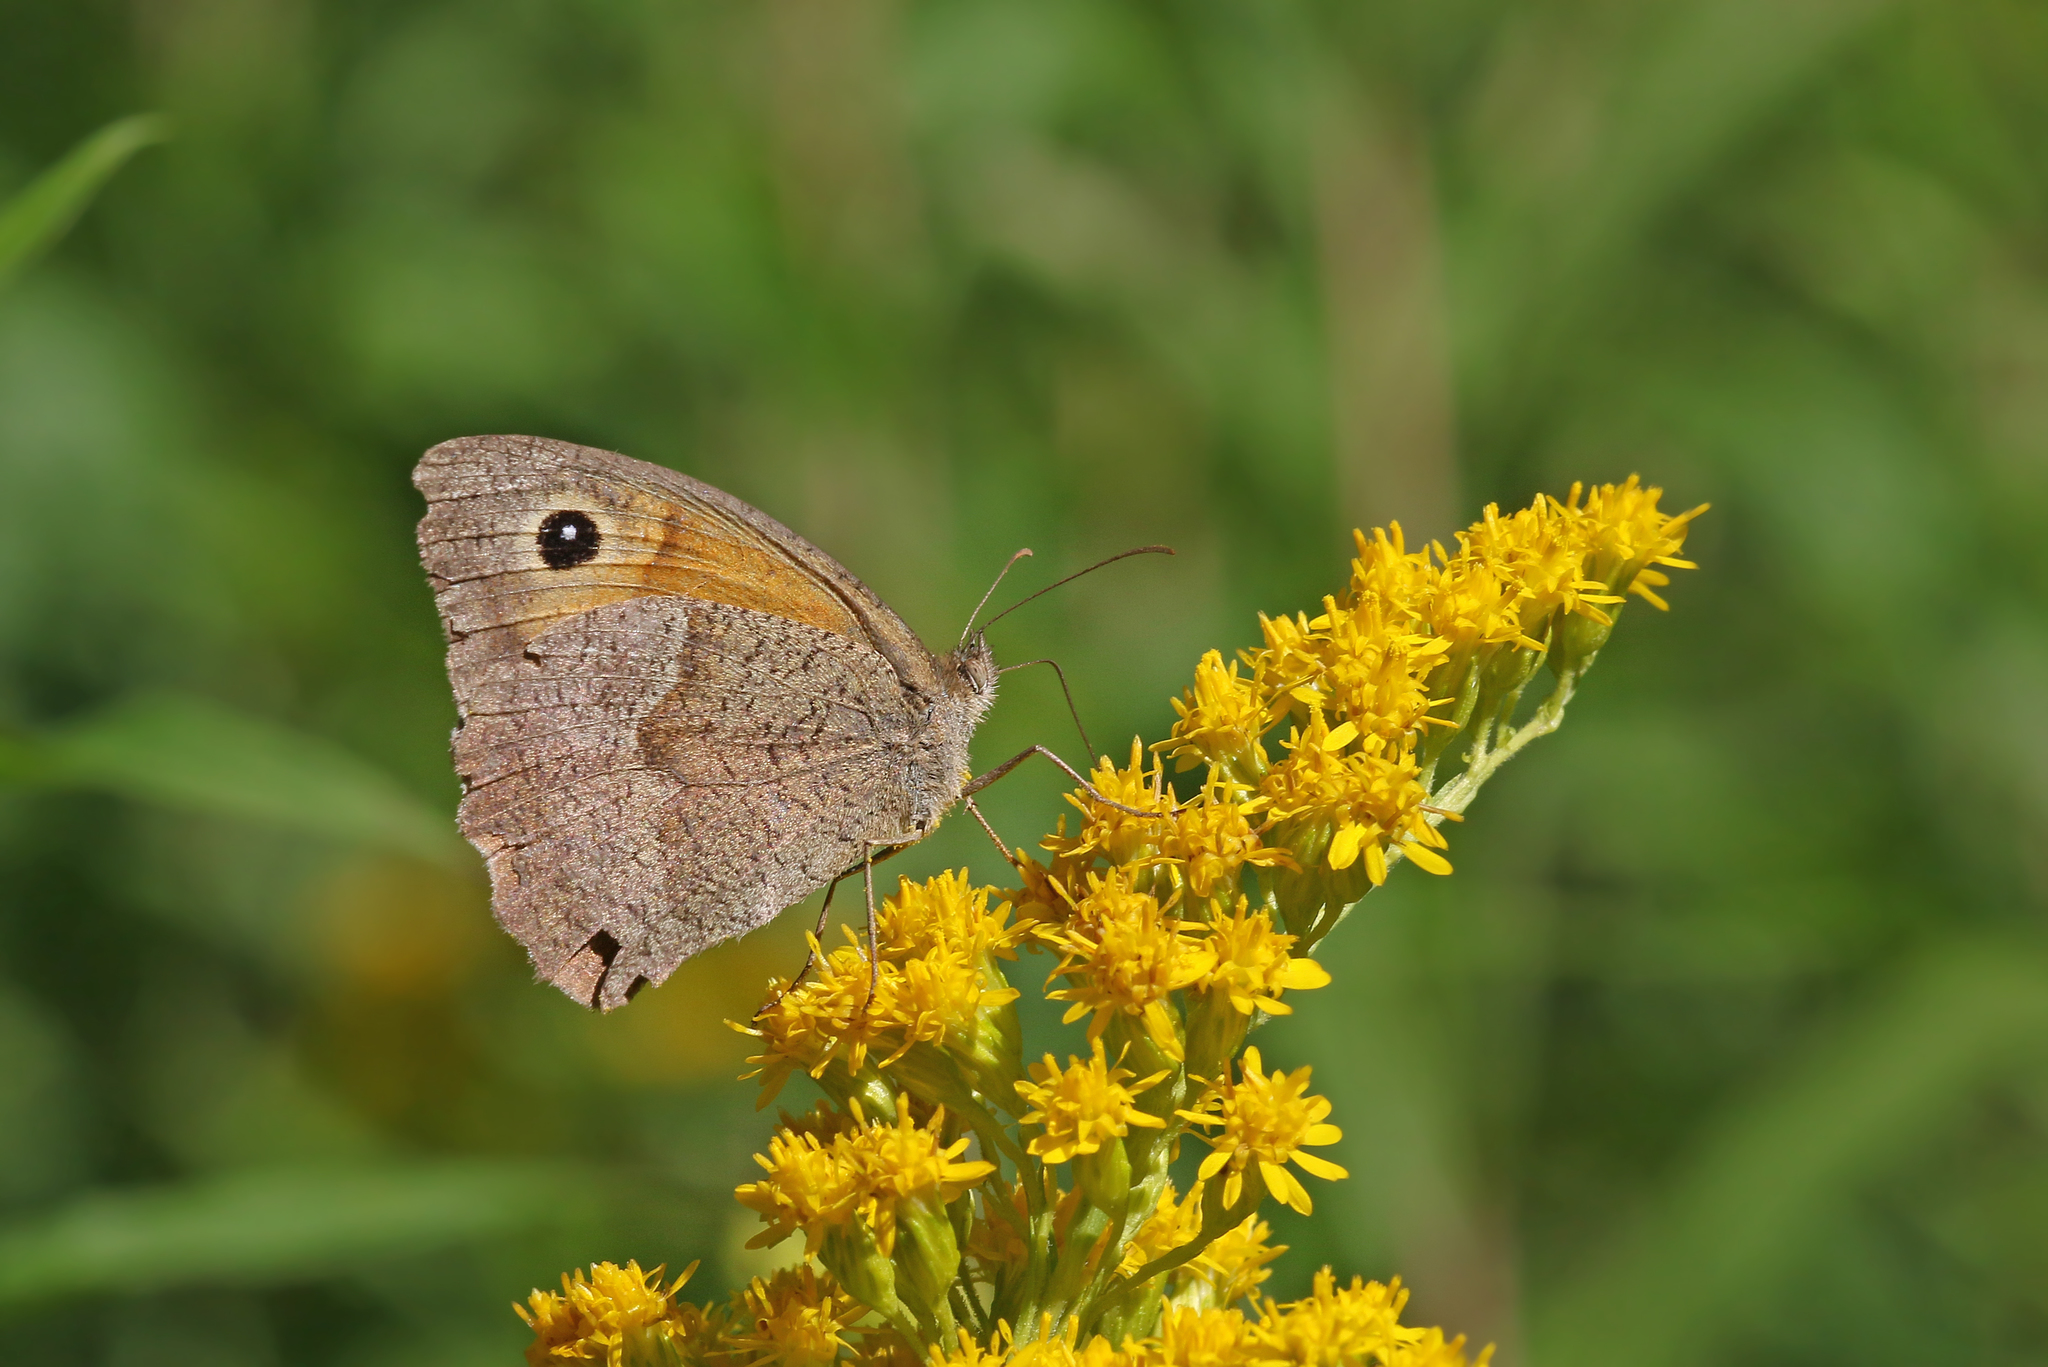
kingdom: Animalia
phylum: Arthropoda
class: Insecta
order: Lepidoptera
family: Nymphalidae
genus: Maniola
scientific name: Maniola jurtina
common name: Meadow brown
